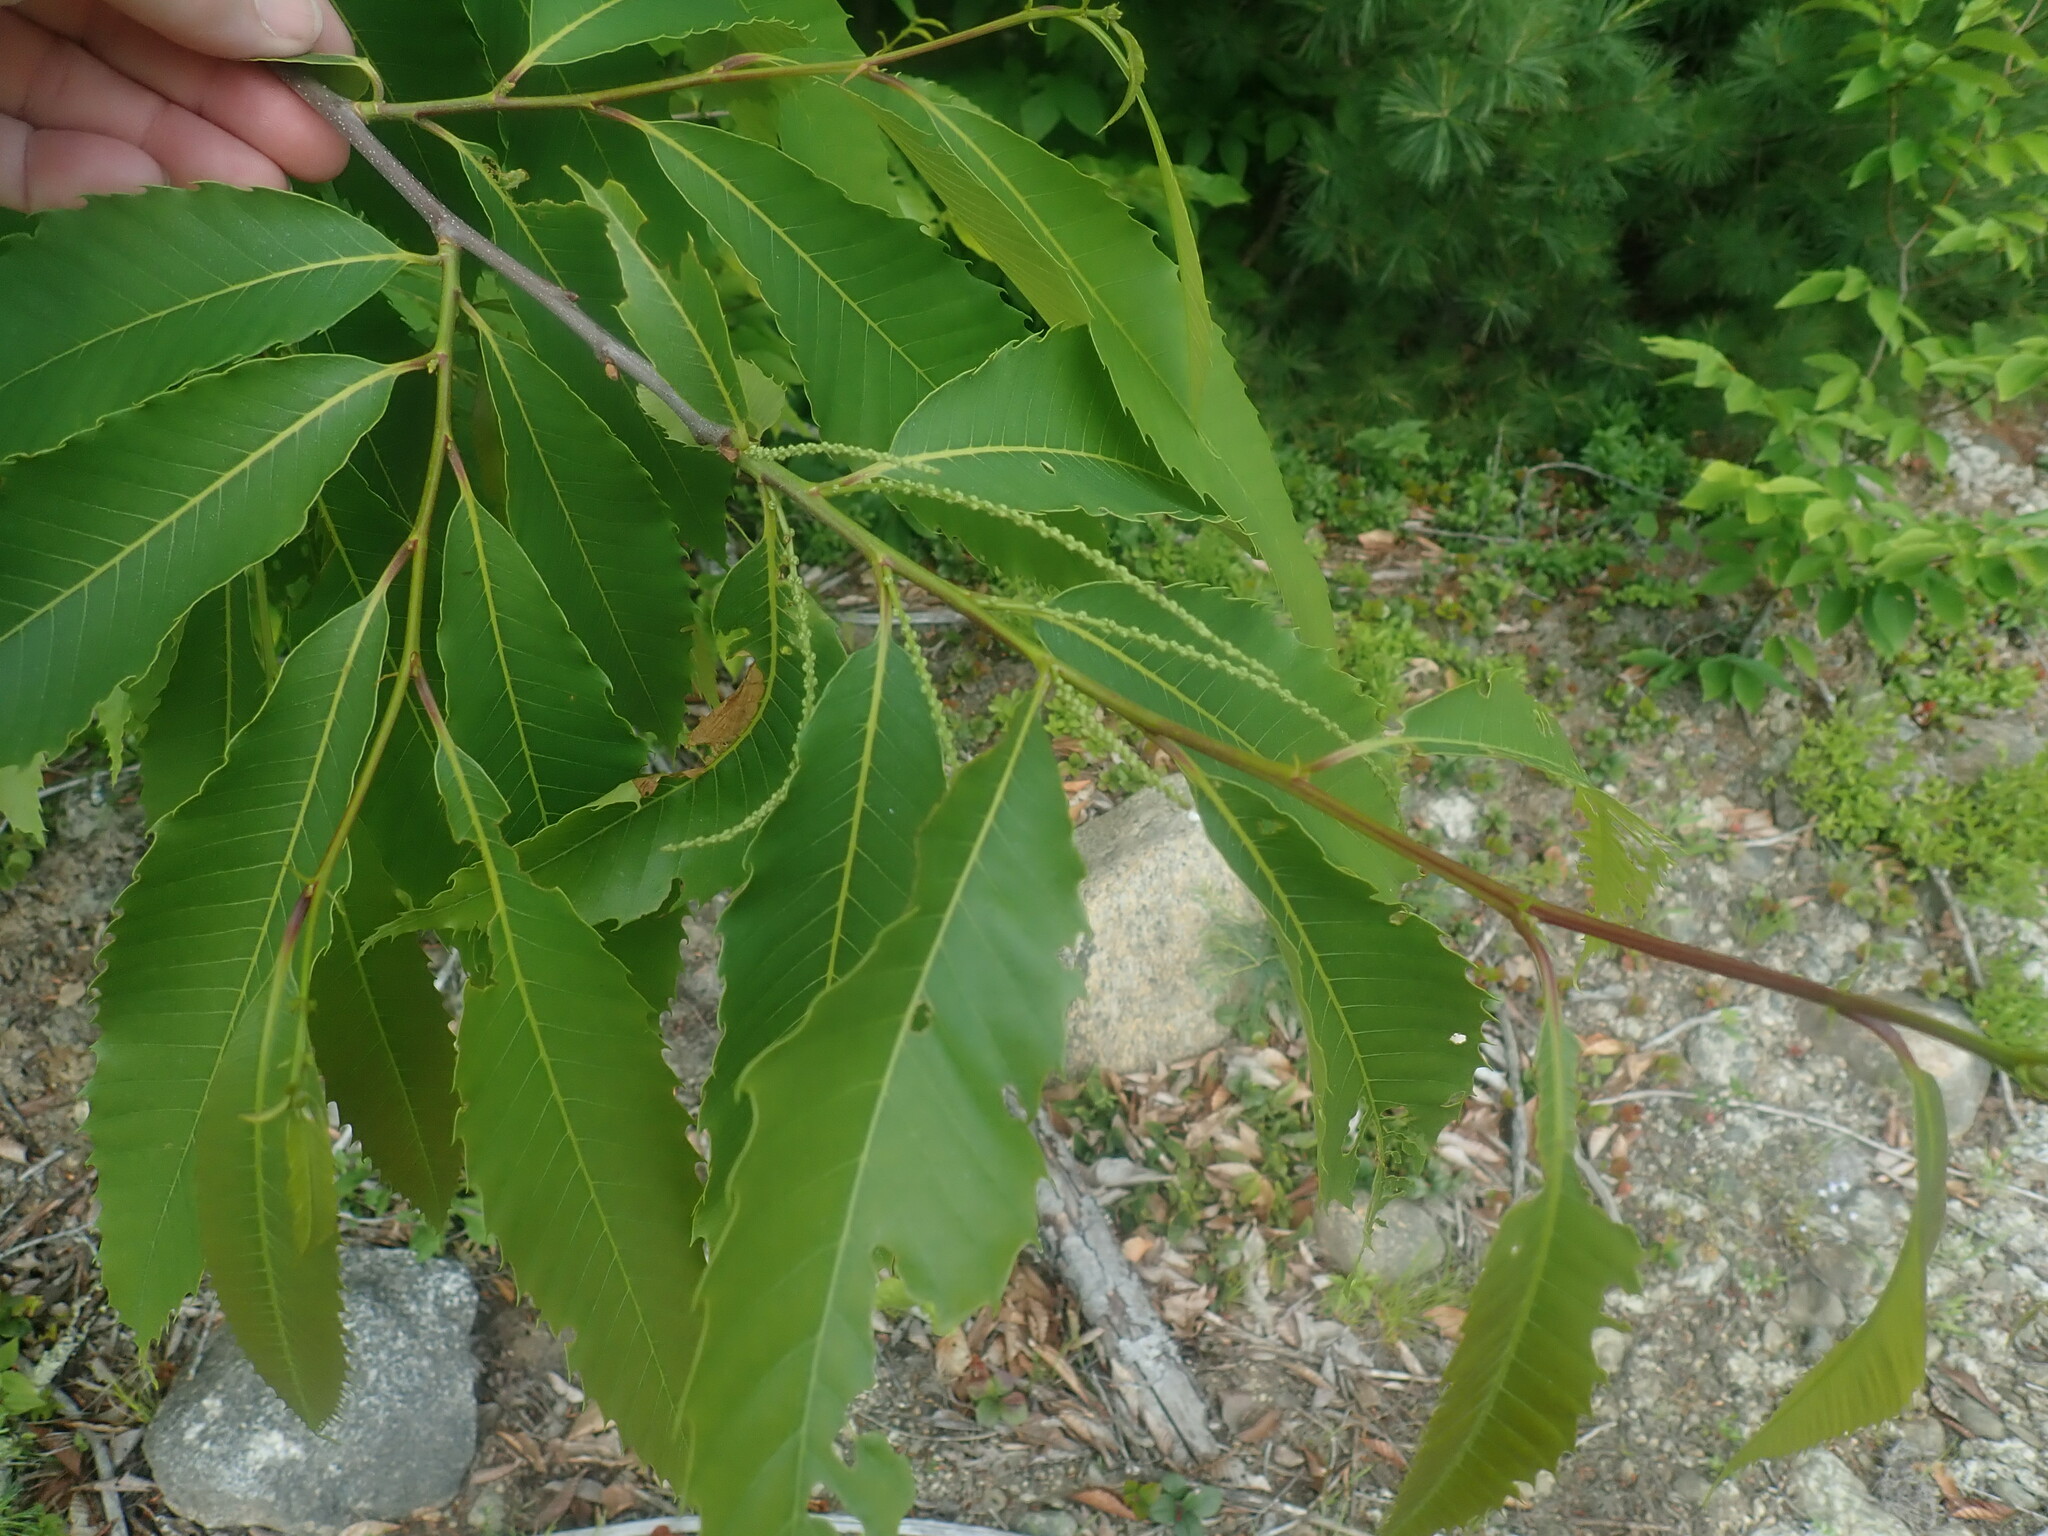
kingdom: Plantae
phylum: Tracheophyta
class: Magnoliopsida
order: Fagales
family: Fagaceae
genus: Castanea
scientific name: Castanea dentata
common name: American chestnut
